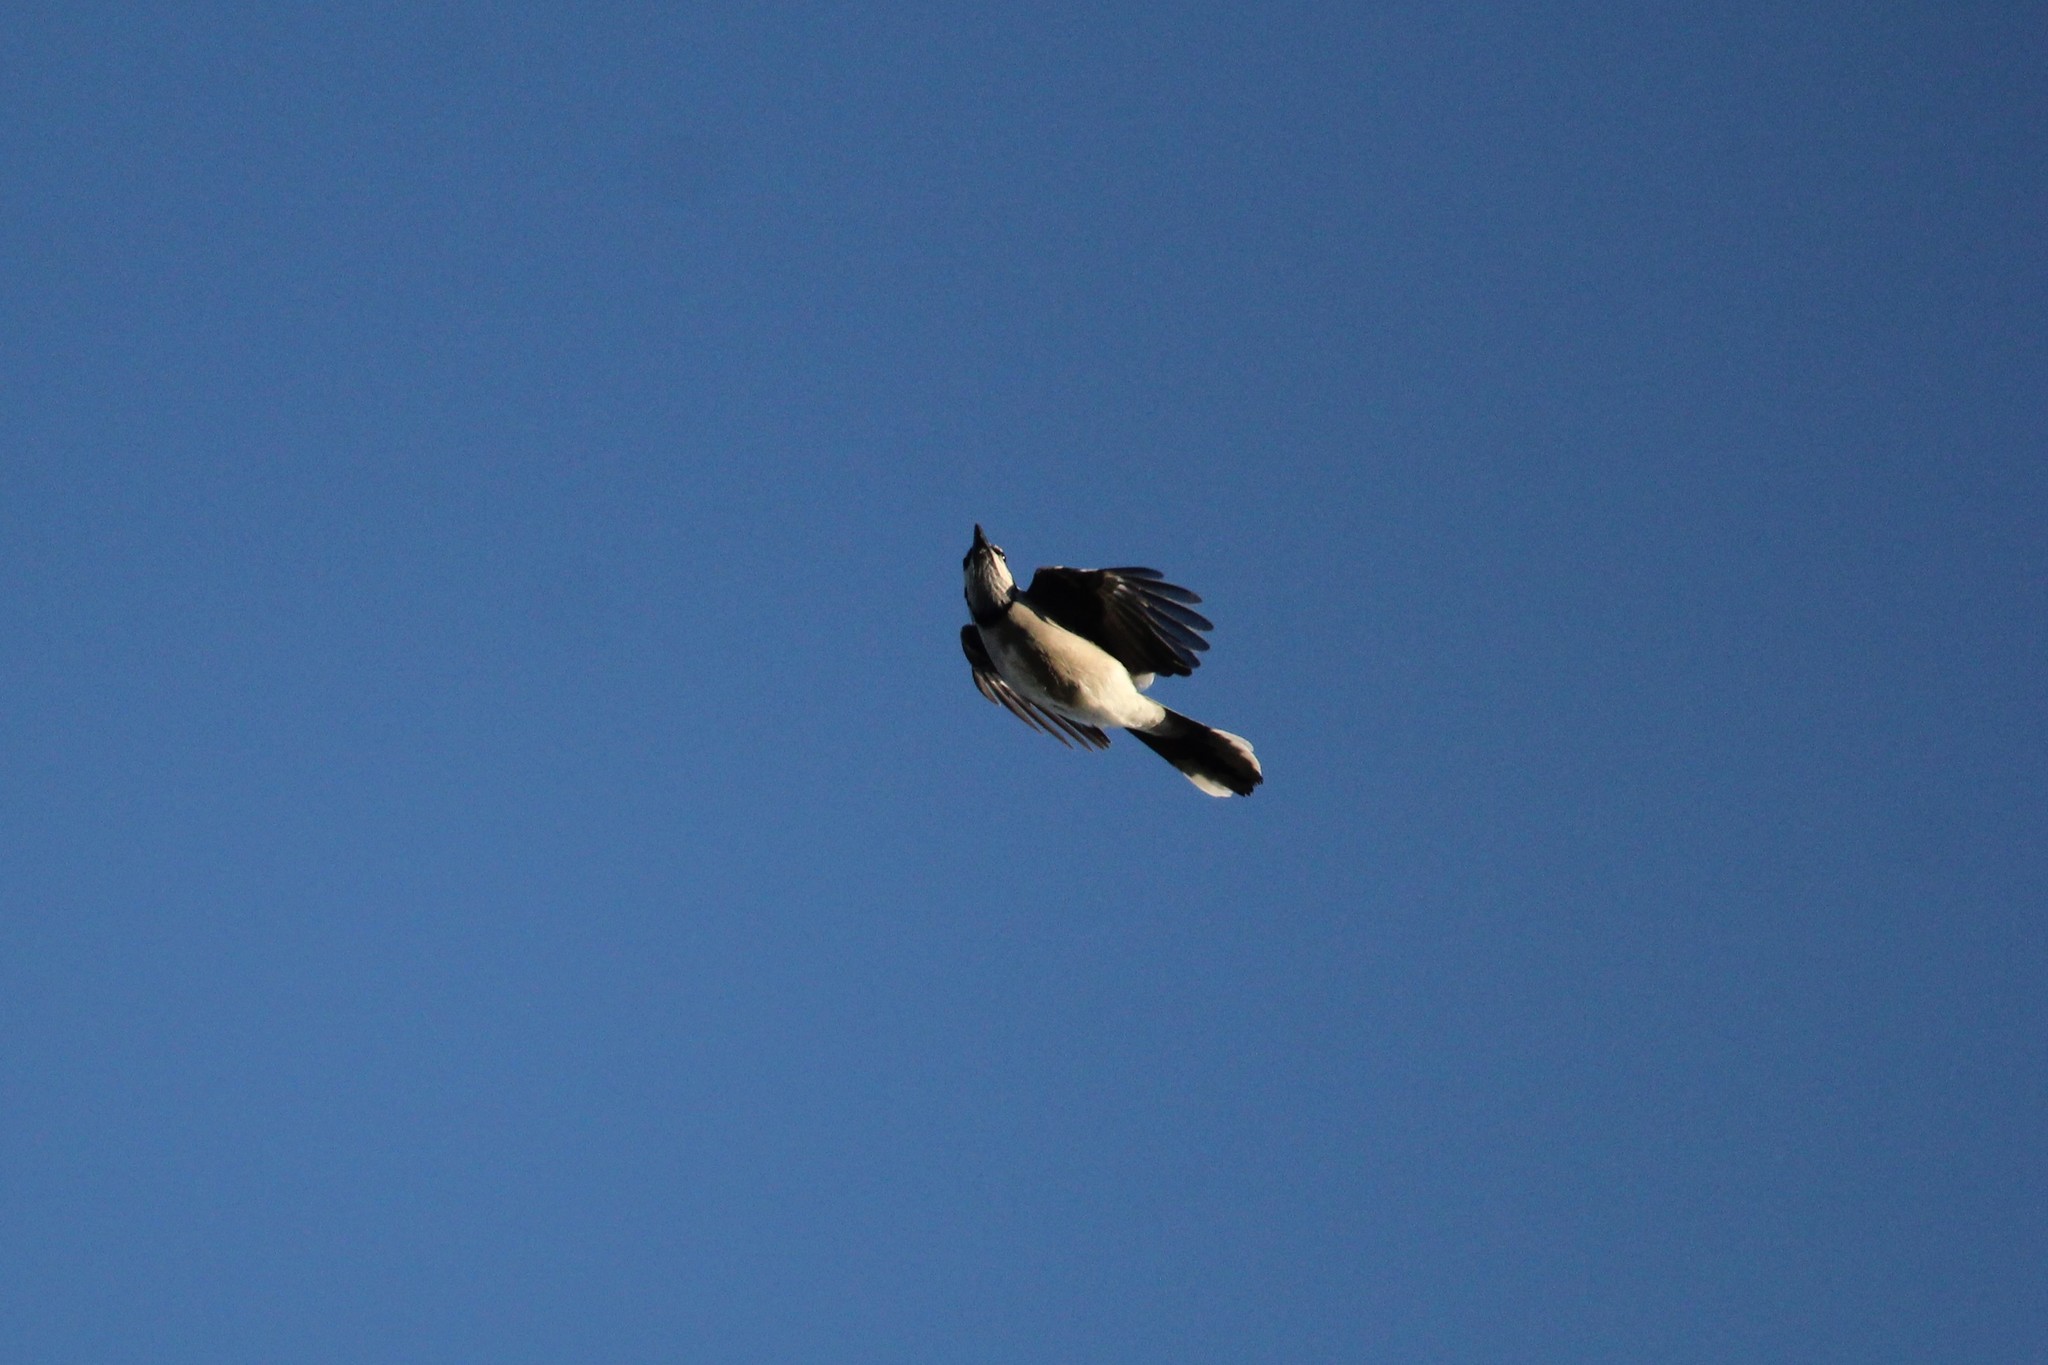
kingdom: Animalia
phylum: Chordata
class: Aves
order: Passeriformes
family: Corvidae
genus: Cyanocitta
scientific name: Cyanocitta cristata
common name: Blue jay
